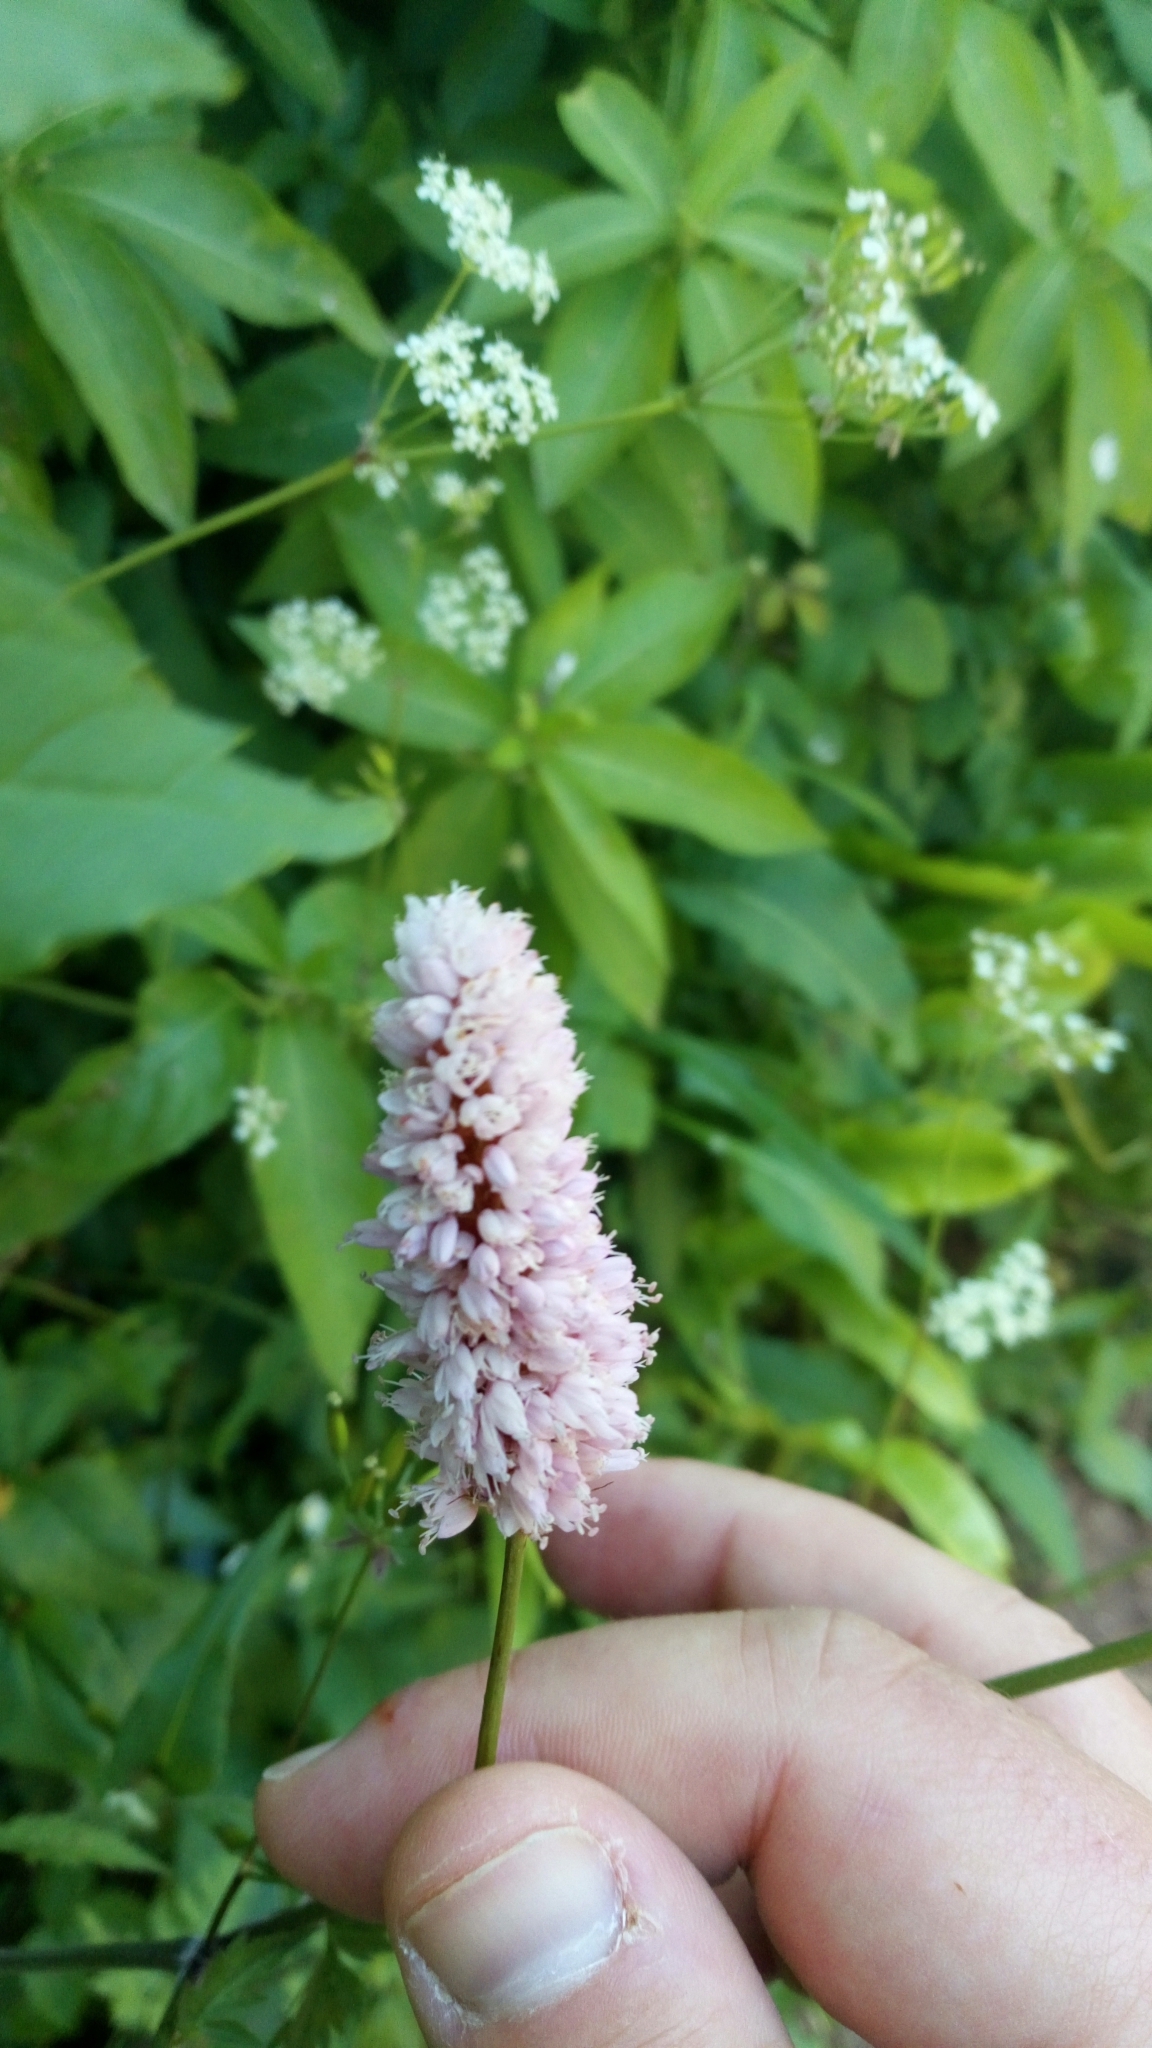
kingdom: Plantae
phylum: Tracheophyta
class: Magnoliopsida
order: Caryophyllales
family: Polygonaceae
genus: Bistorta
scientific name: Bistorta officinalis
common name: Common bistort
